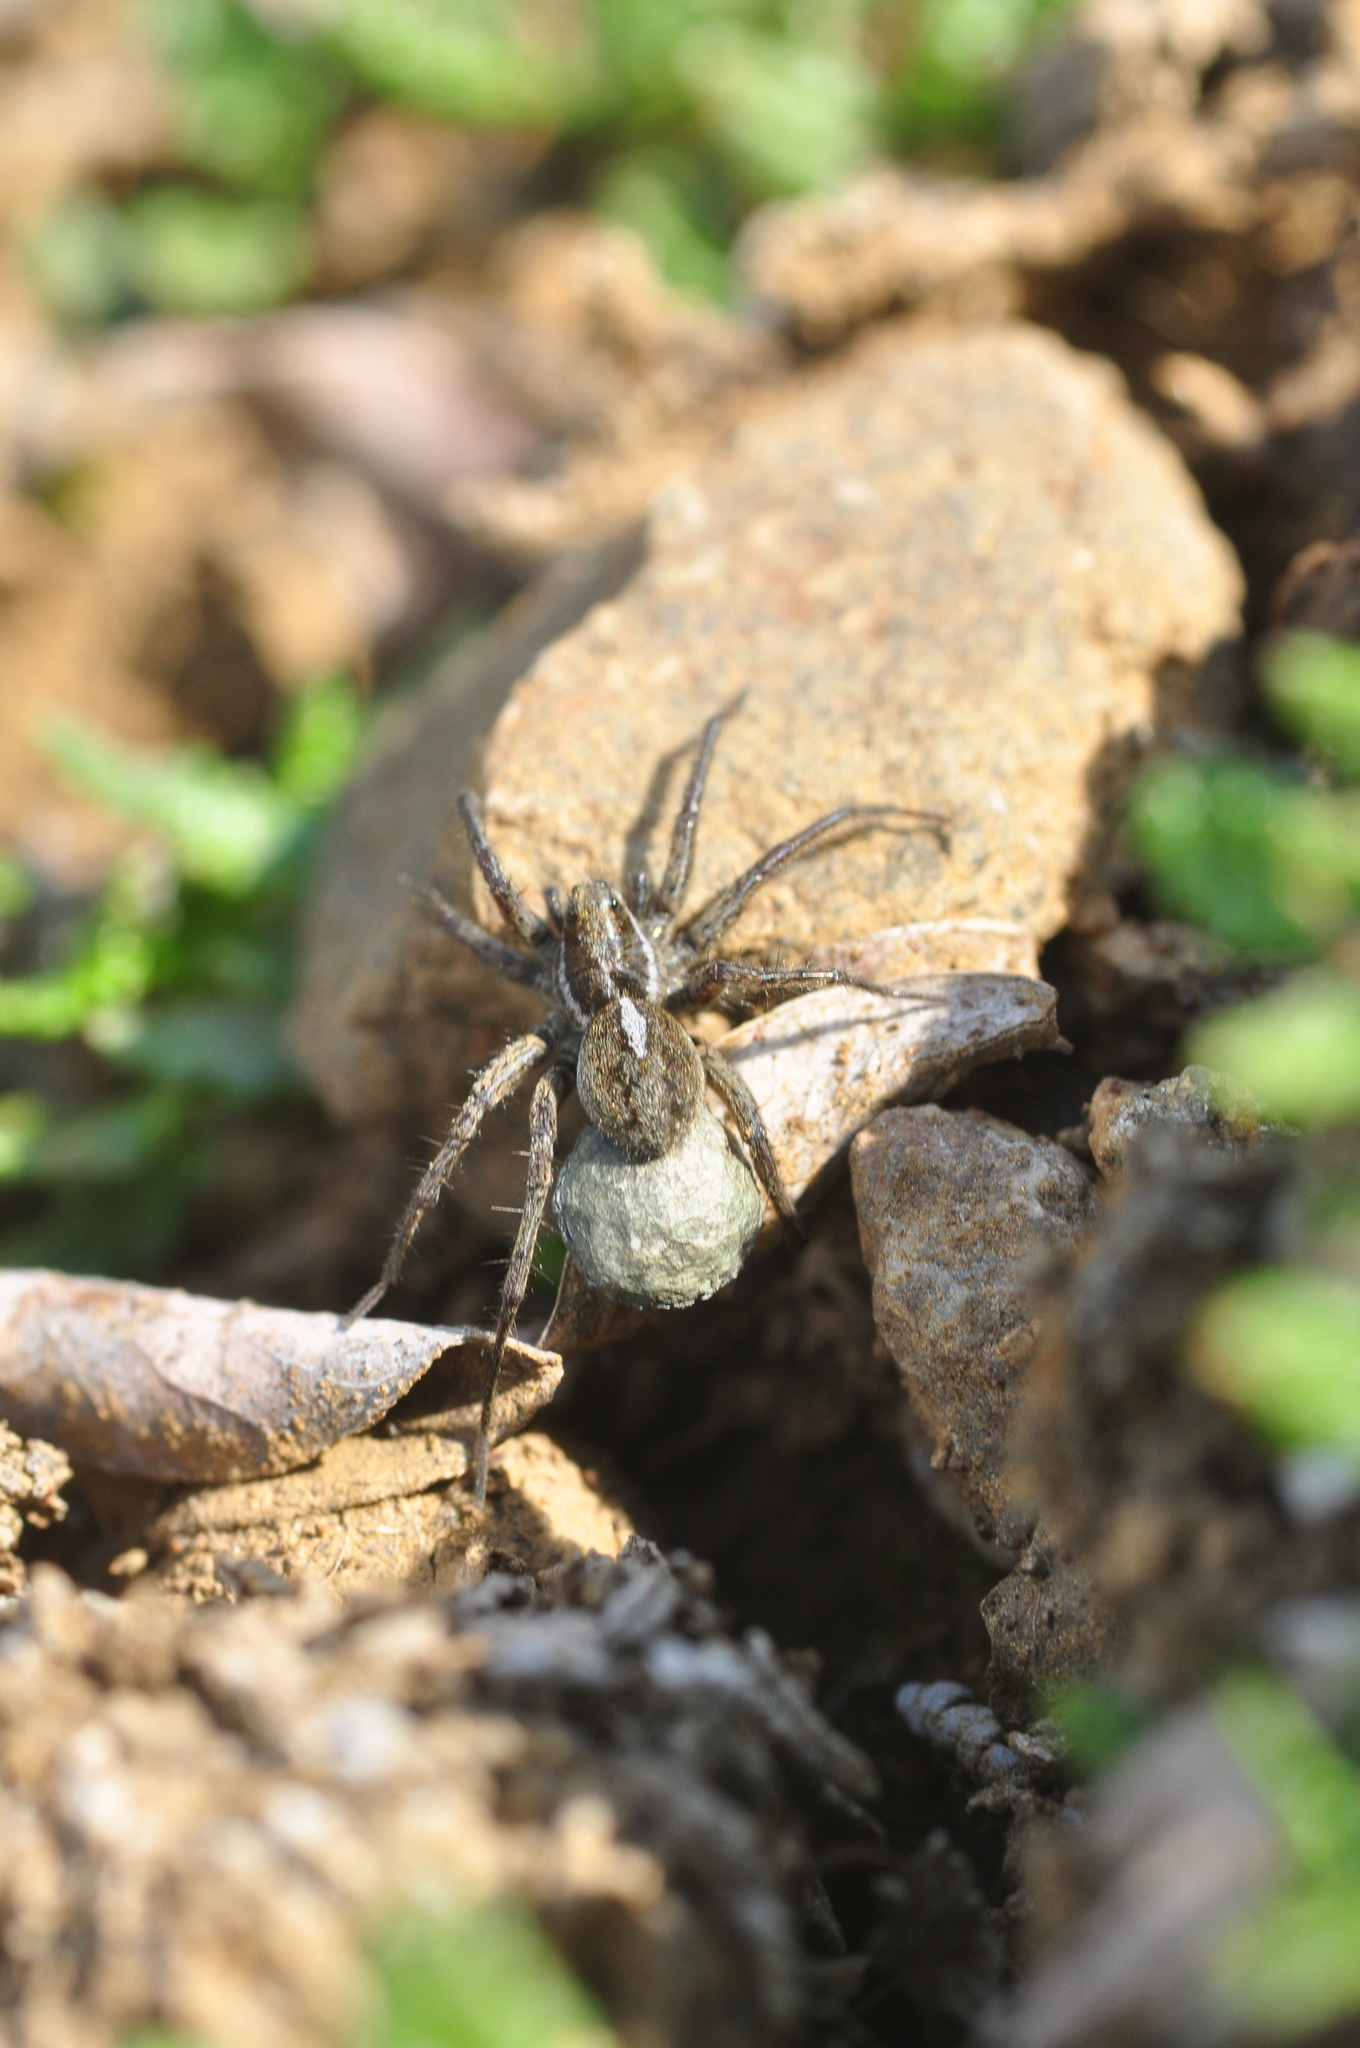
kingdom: Animalia
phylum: Arthropoda
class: Arachnida
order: Araneae
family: Lycosidae
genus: Pardosa
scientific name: Pardosa glacialis
